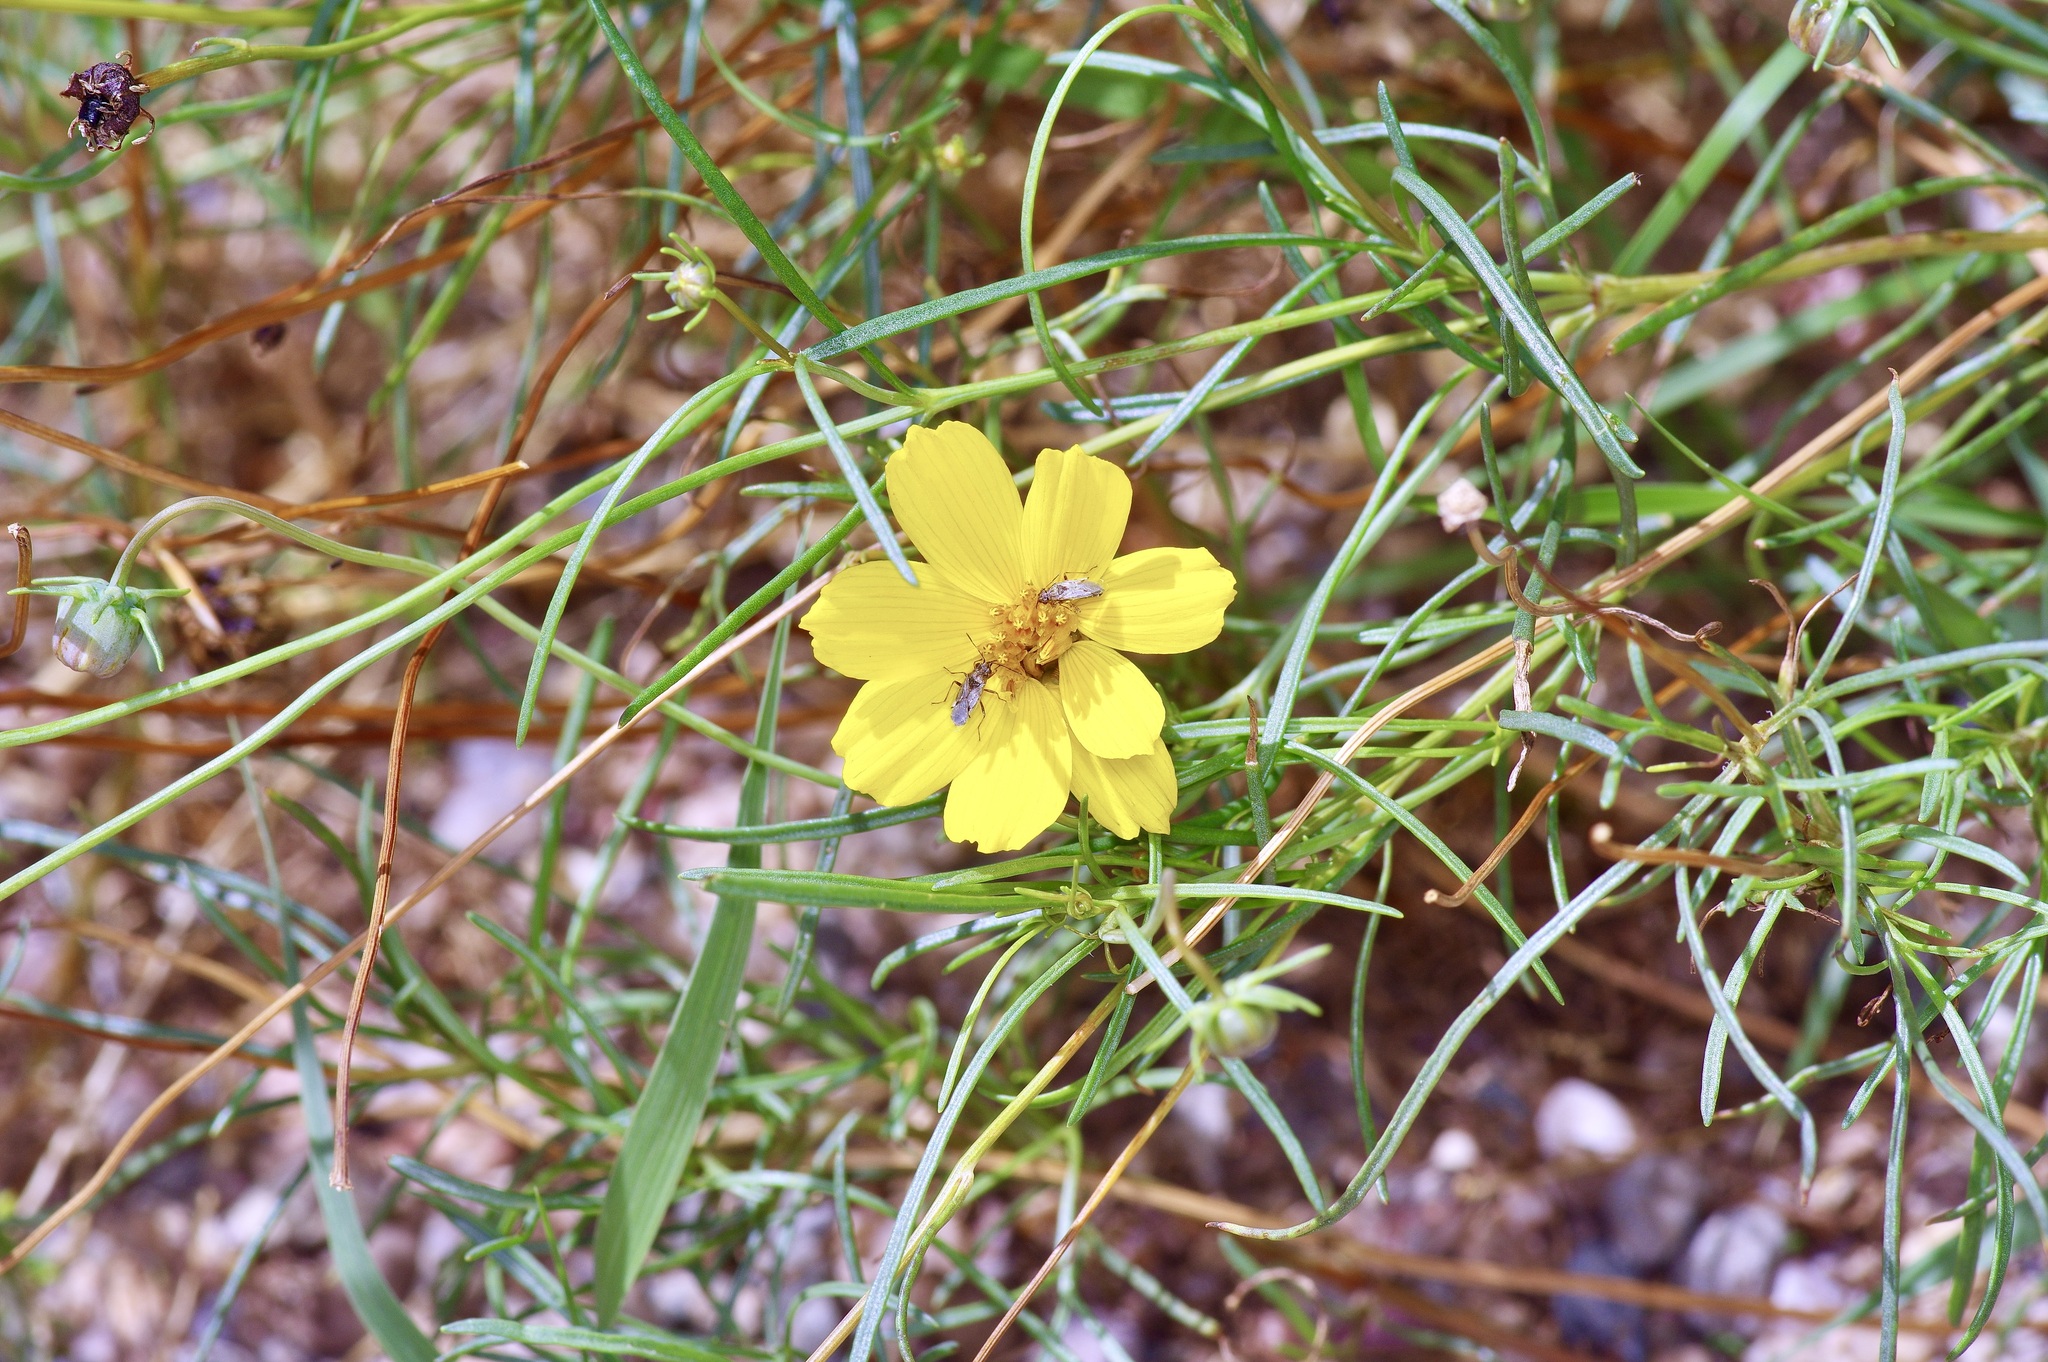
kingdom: Plantae
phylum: Tracheophyta
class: Magnoliopsida
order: Asterales
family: Asteraceae
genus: Thelesperma
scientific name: Thelesperma filifolium
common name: Stiff greenthread
